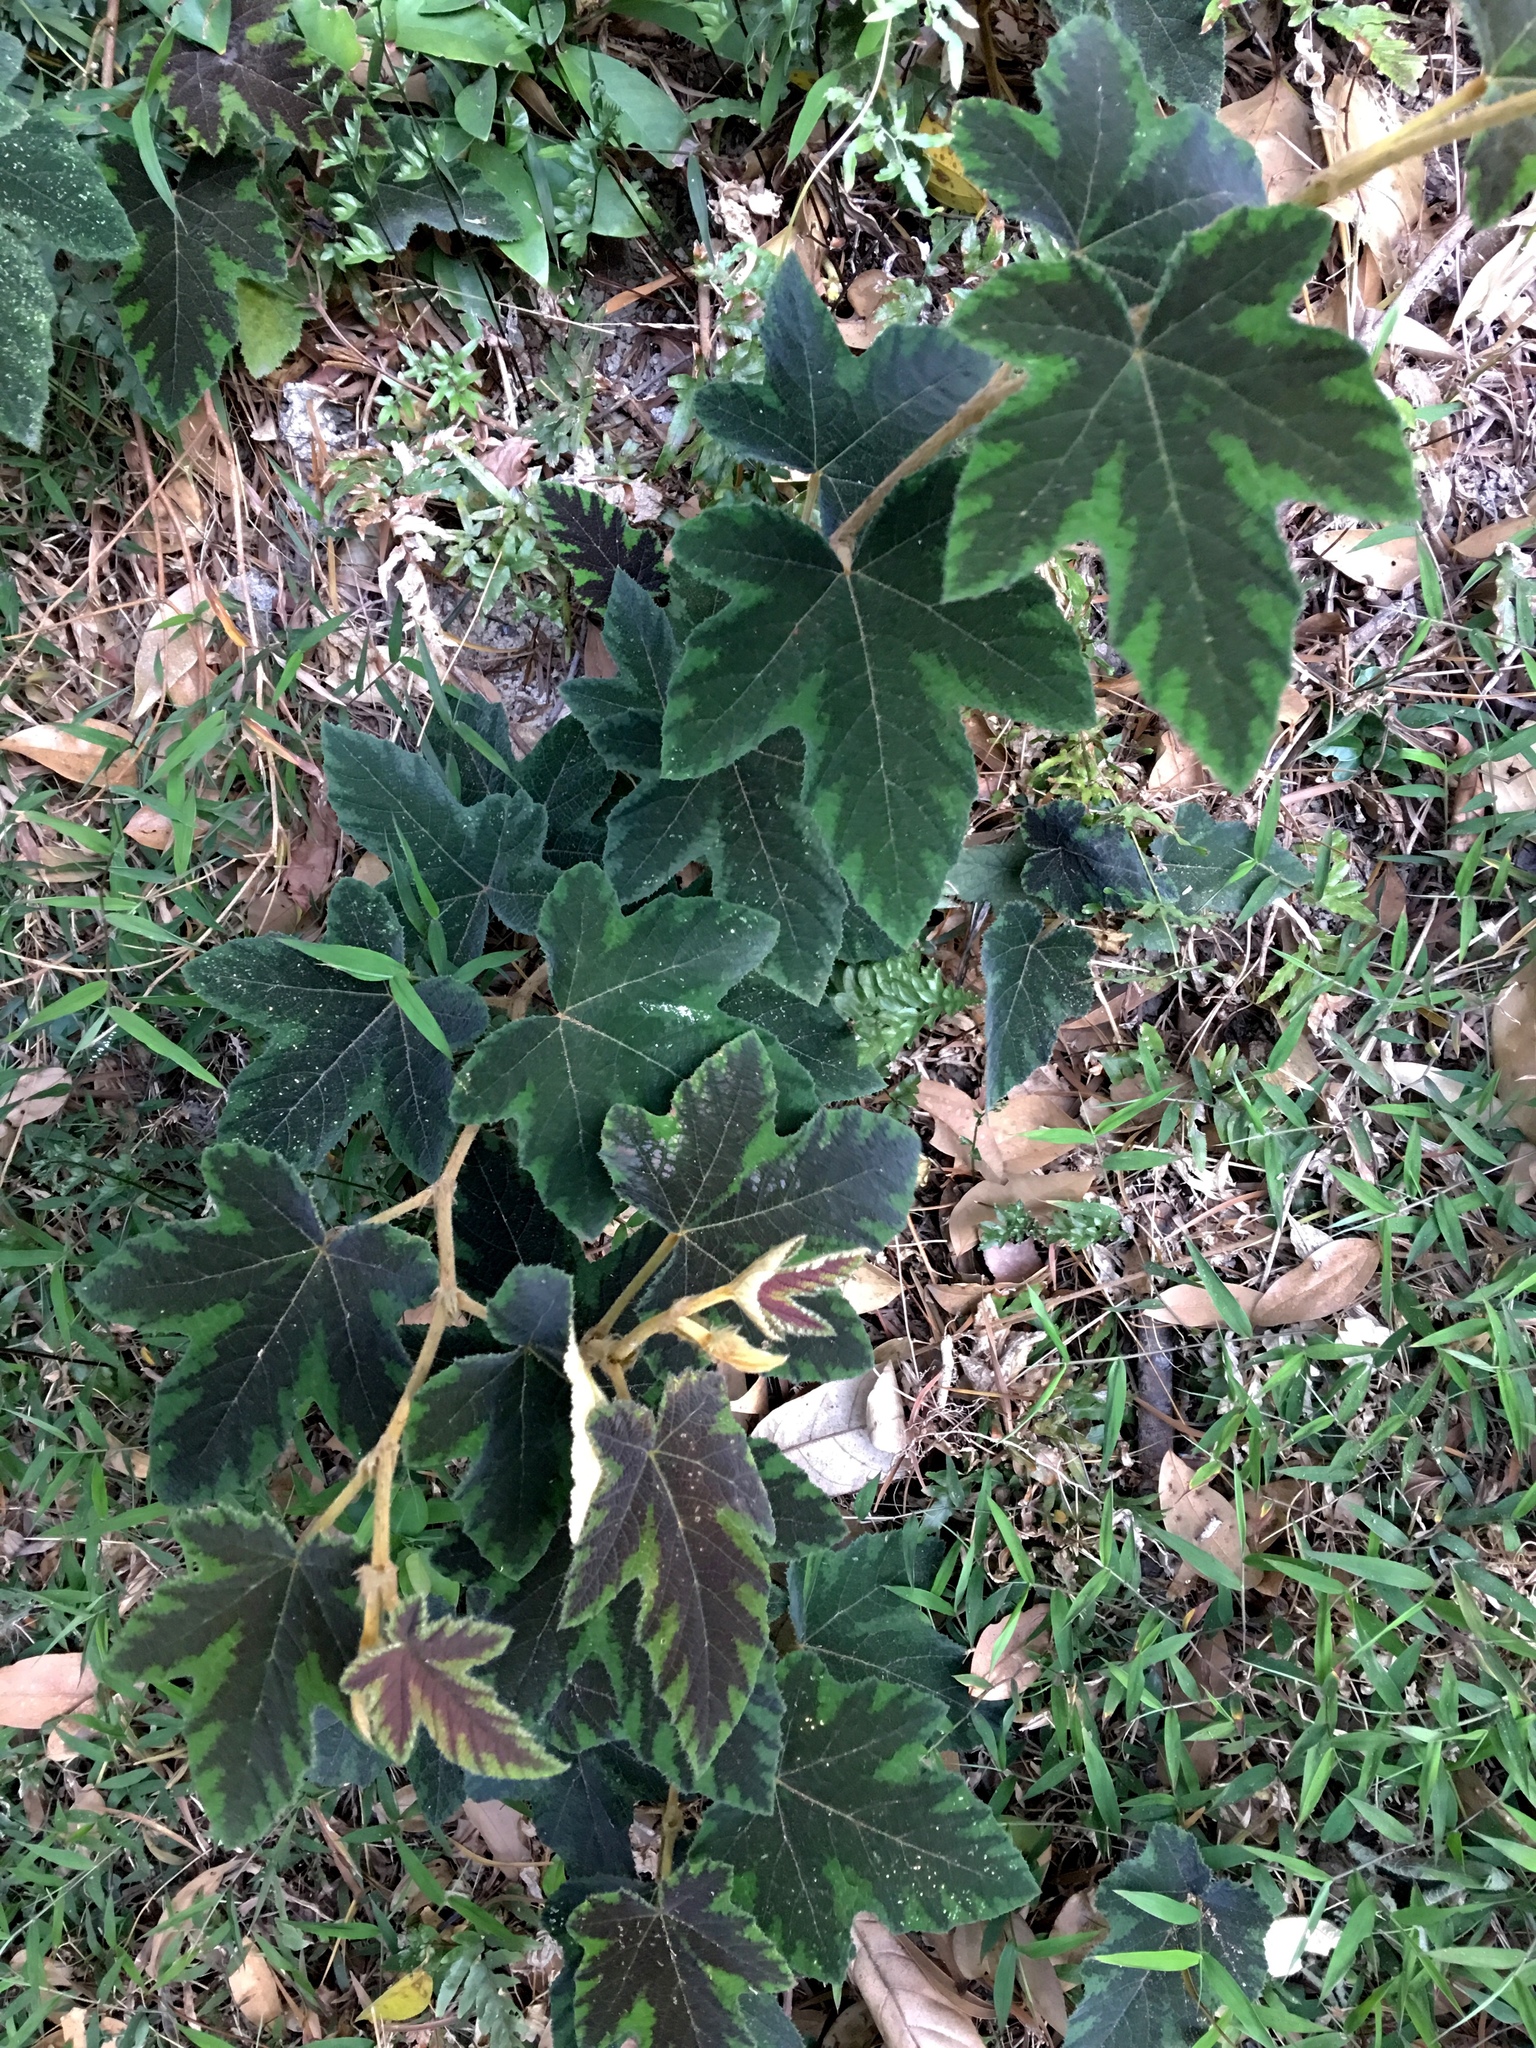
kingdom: Plantae
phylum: Tracheophyta
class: Magnoliopsida
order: Rosales
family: Rosaceae
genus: Rubus
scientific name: Rubus reflexus
